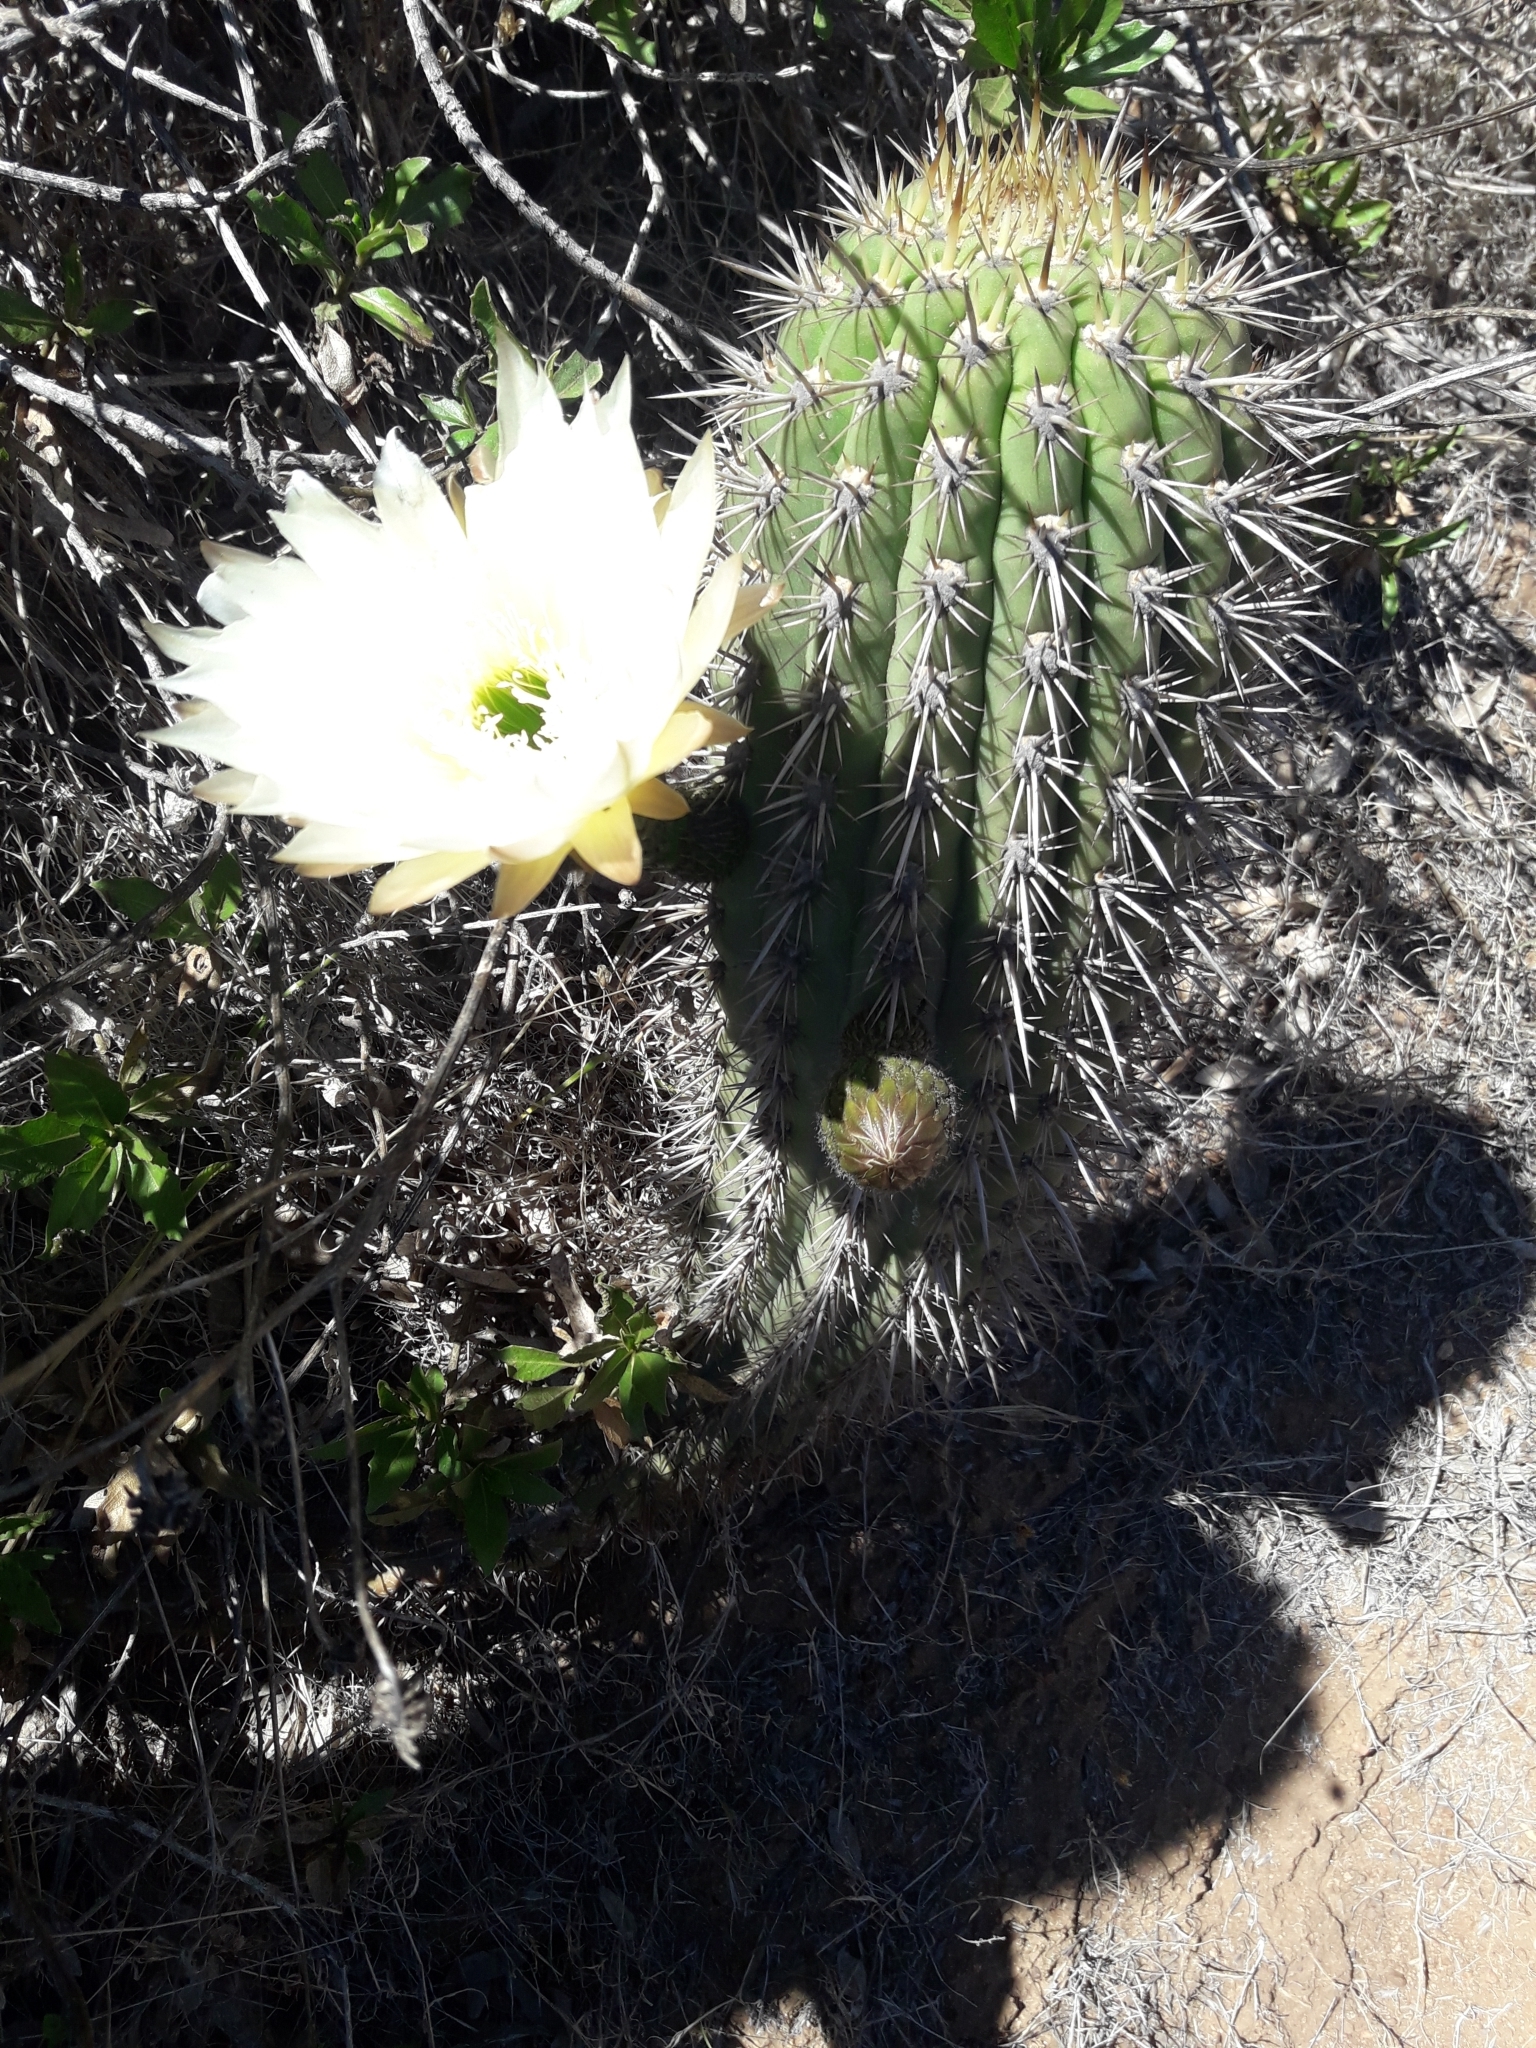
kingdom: Plantae
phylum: Tracheophyta
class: Magnoliopsida
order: Caryophyllales
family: Cactaceae
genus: Leucostele
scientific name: Leucostele litoralis
